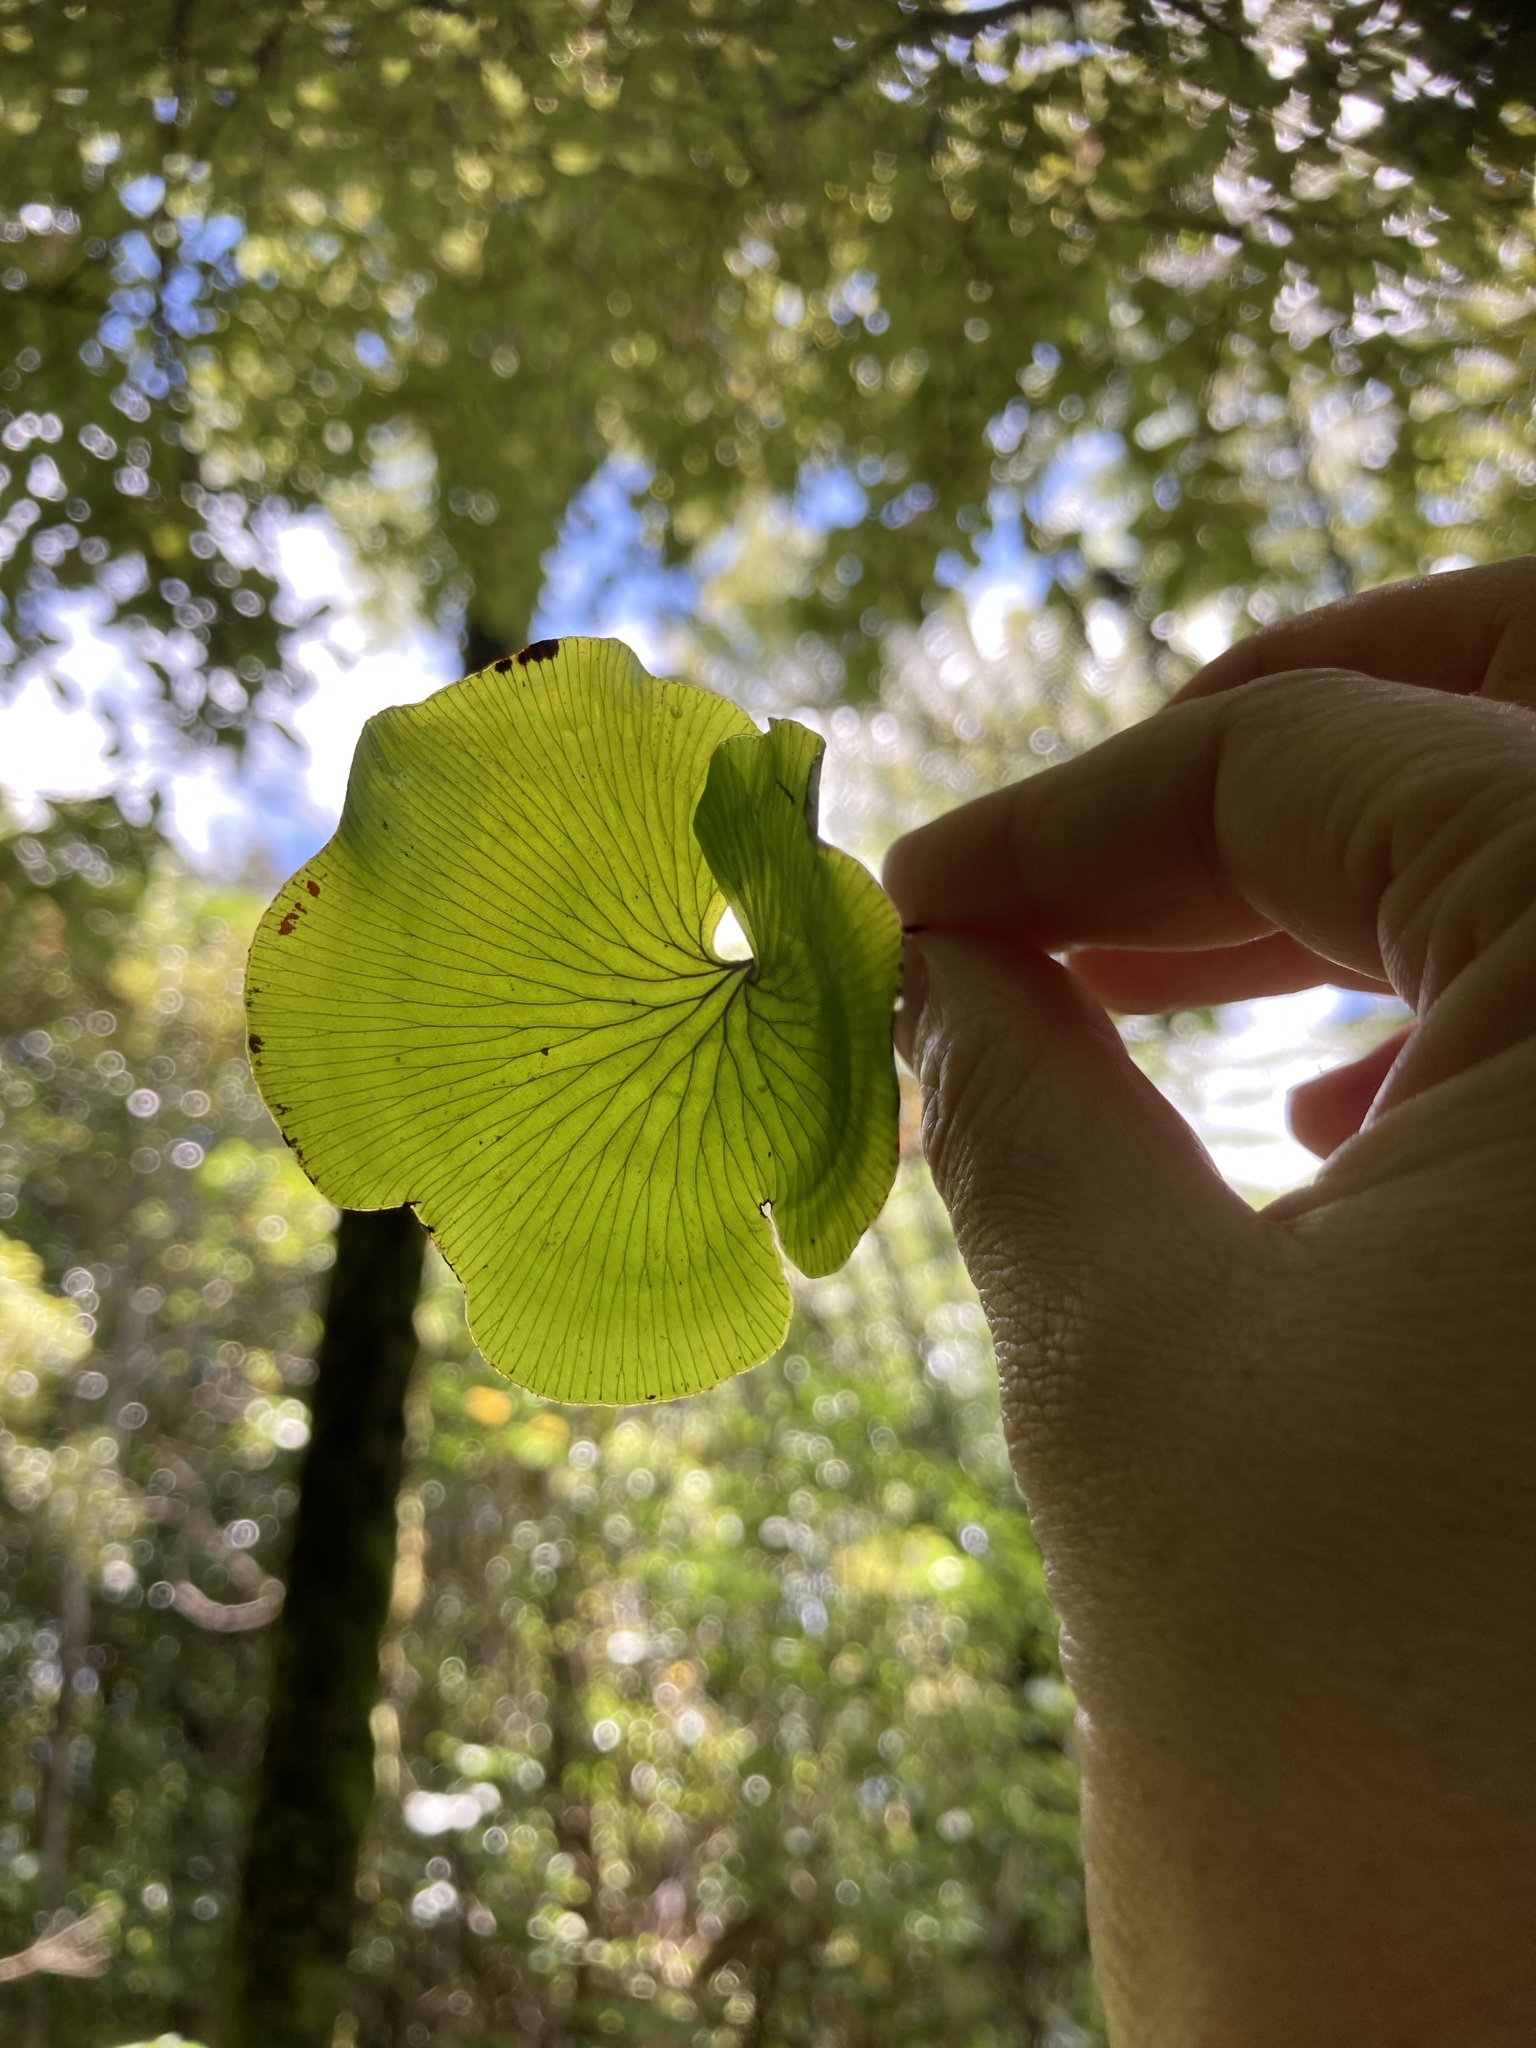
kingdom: Plantae
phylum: Tracheophyta
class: Polypodiopsida
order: Hymenophyllales
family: Hymenophyllaceae
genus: Hymenophyllum
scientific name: Hymenophyllum nephrophyllum
